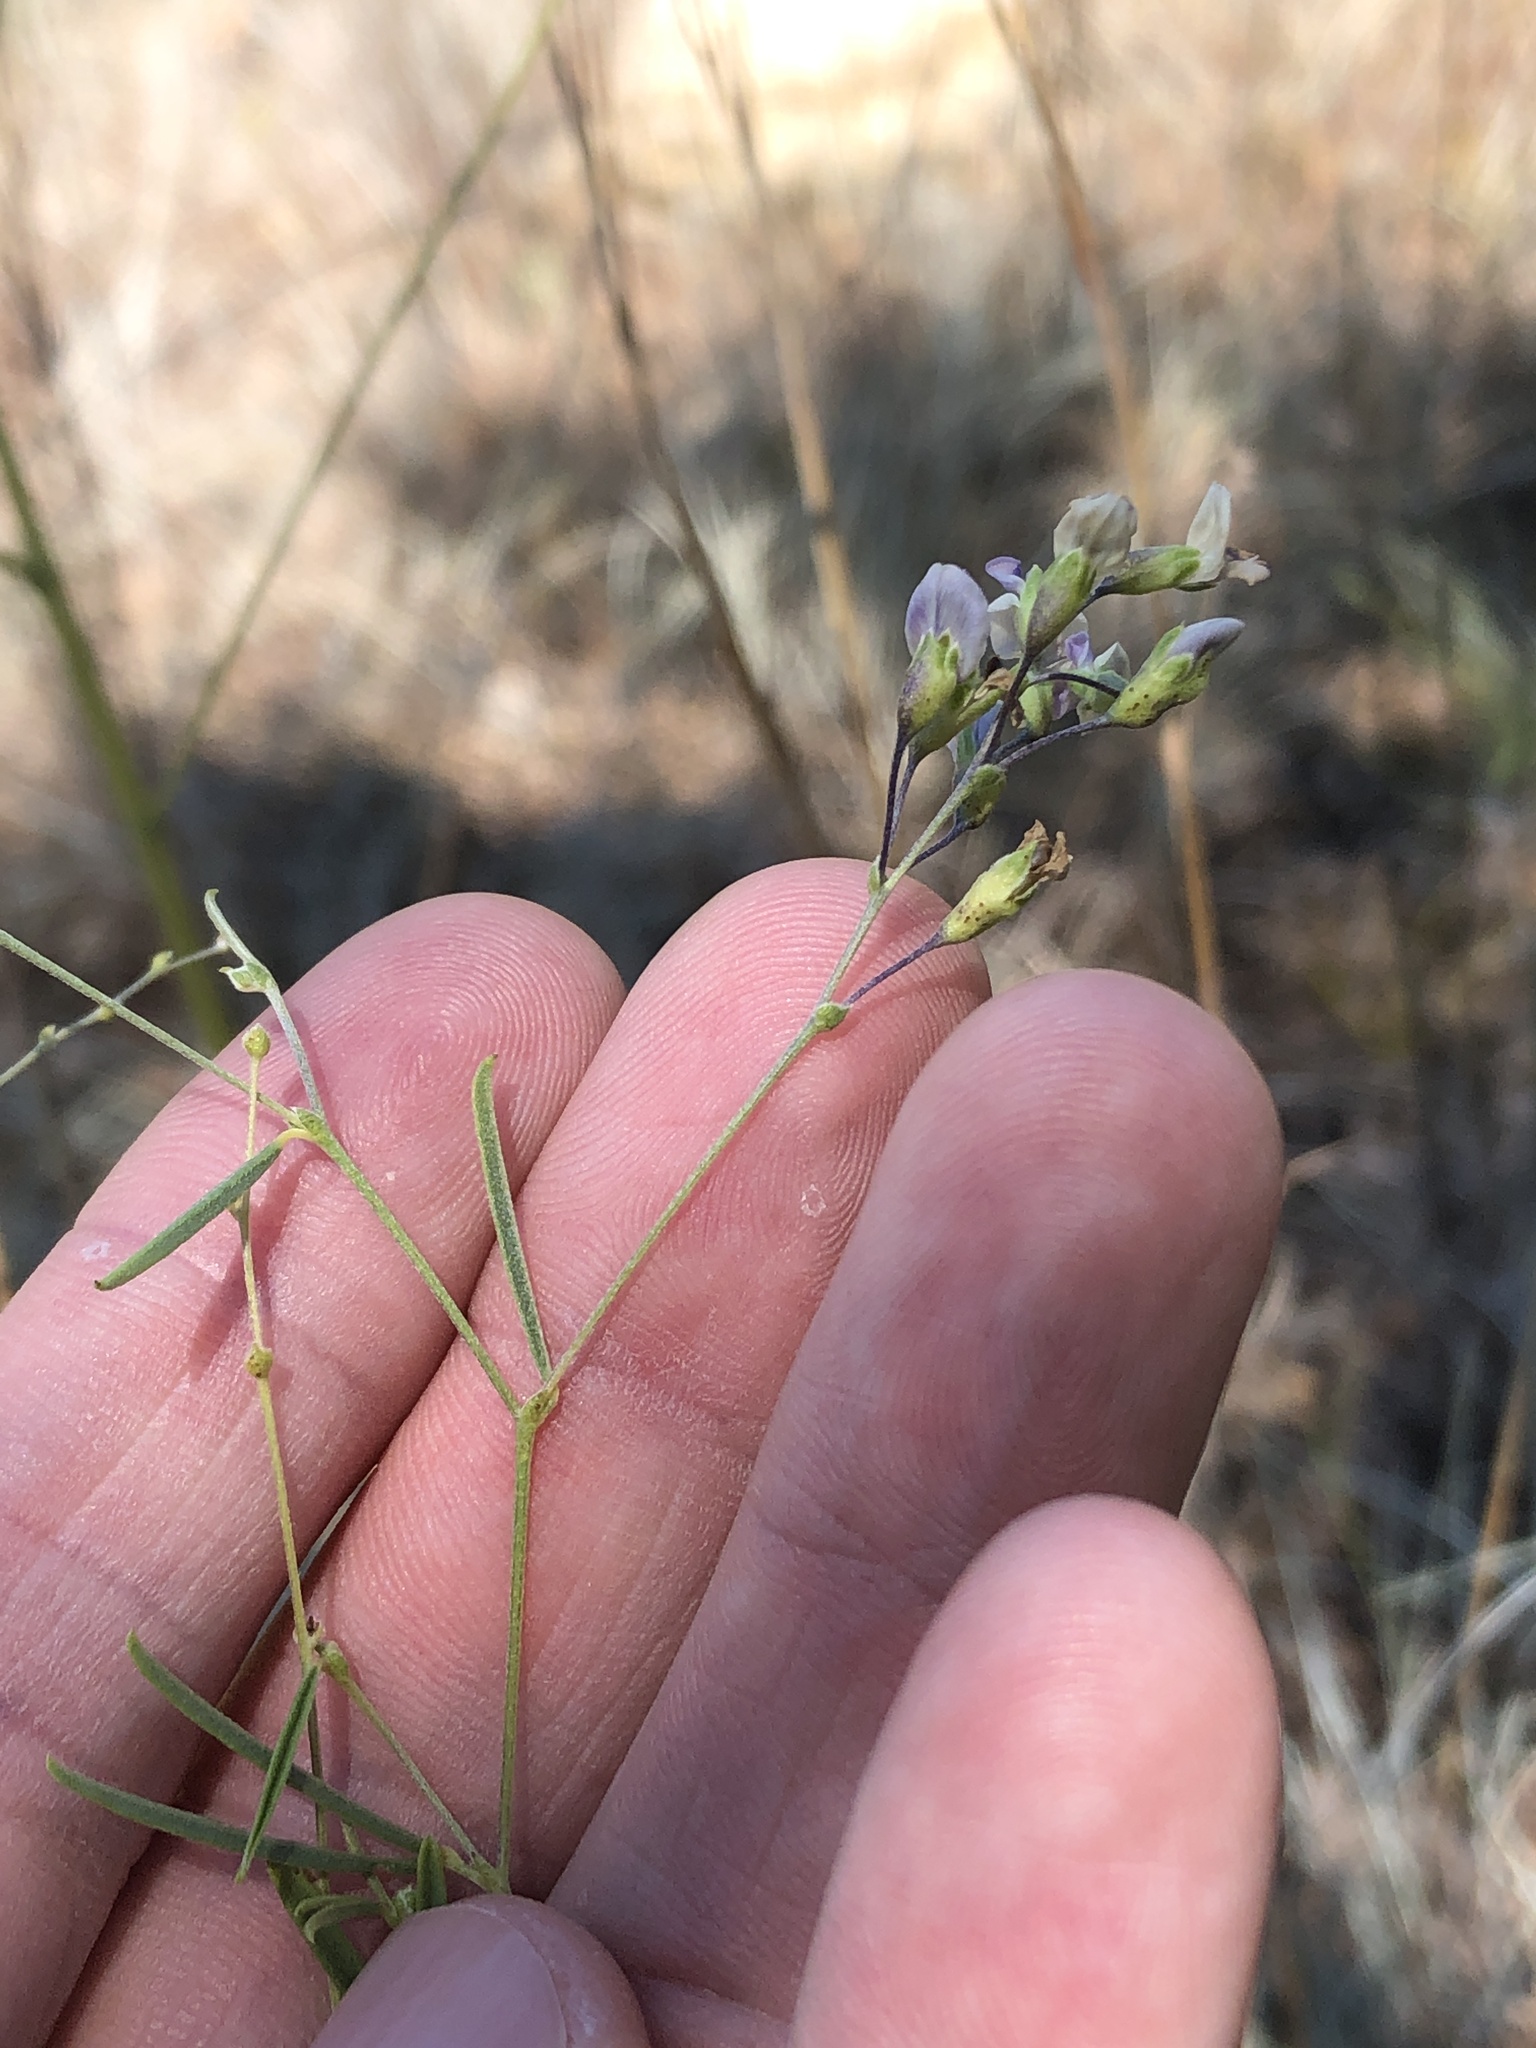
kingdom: Plantae
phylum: Tracheophyta
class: Magnoliopsida
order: Fabales
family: Fabaceae
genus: Pediomelum
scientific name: Pediomelum linearifolium
